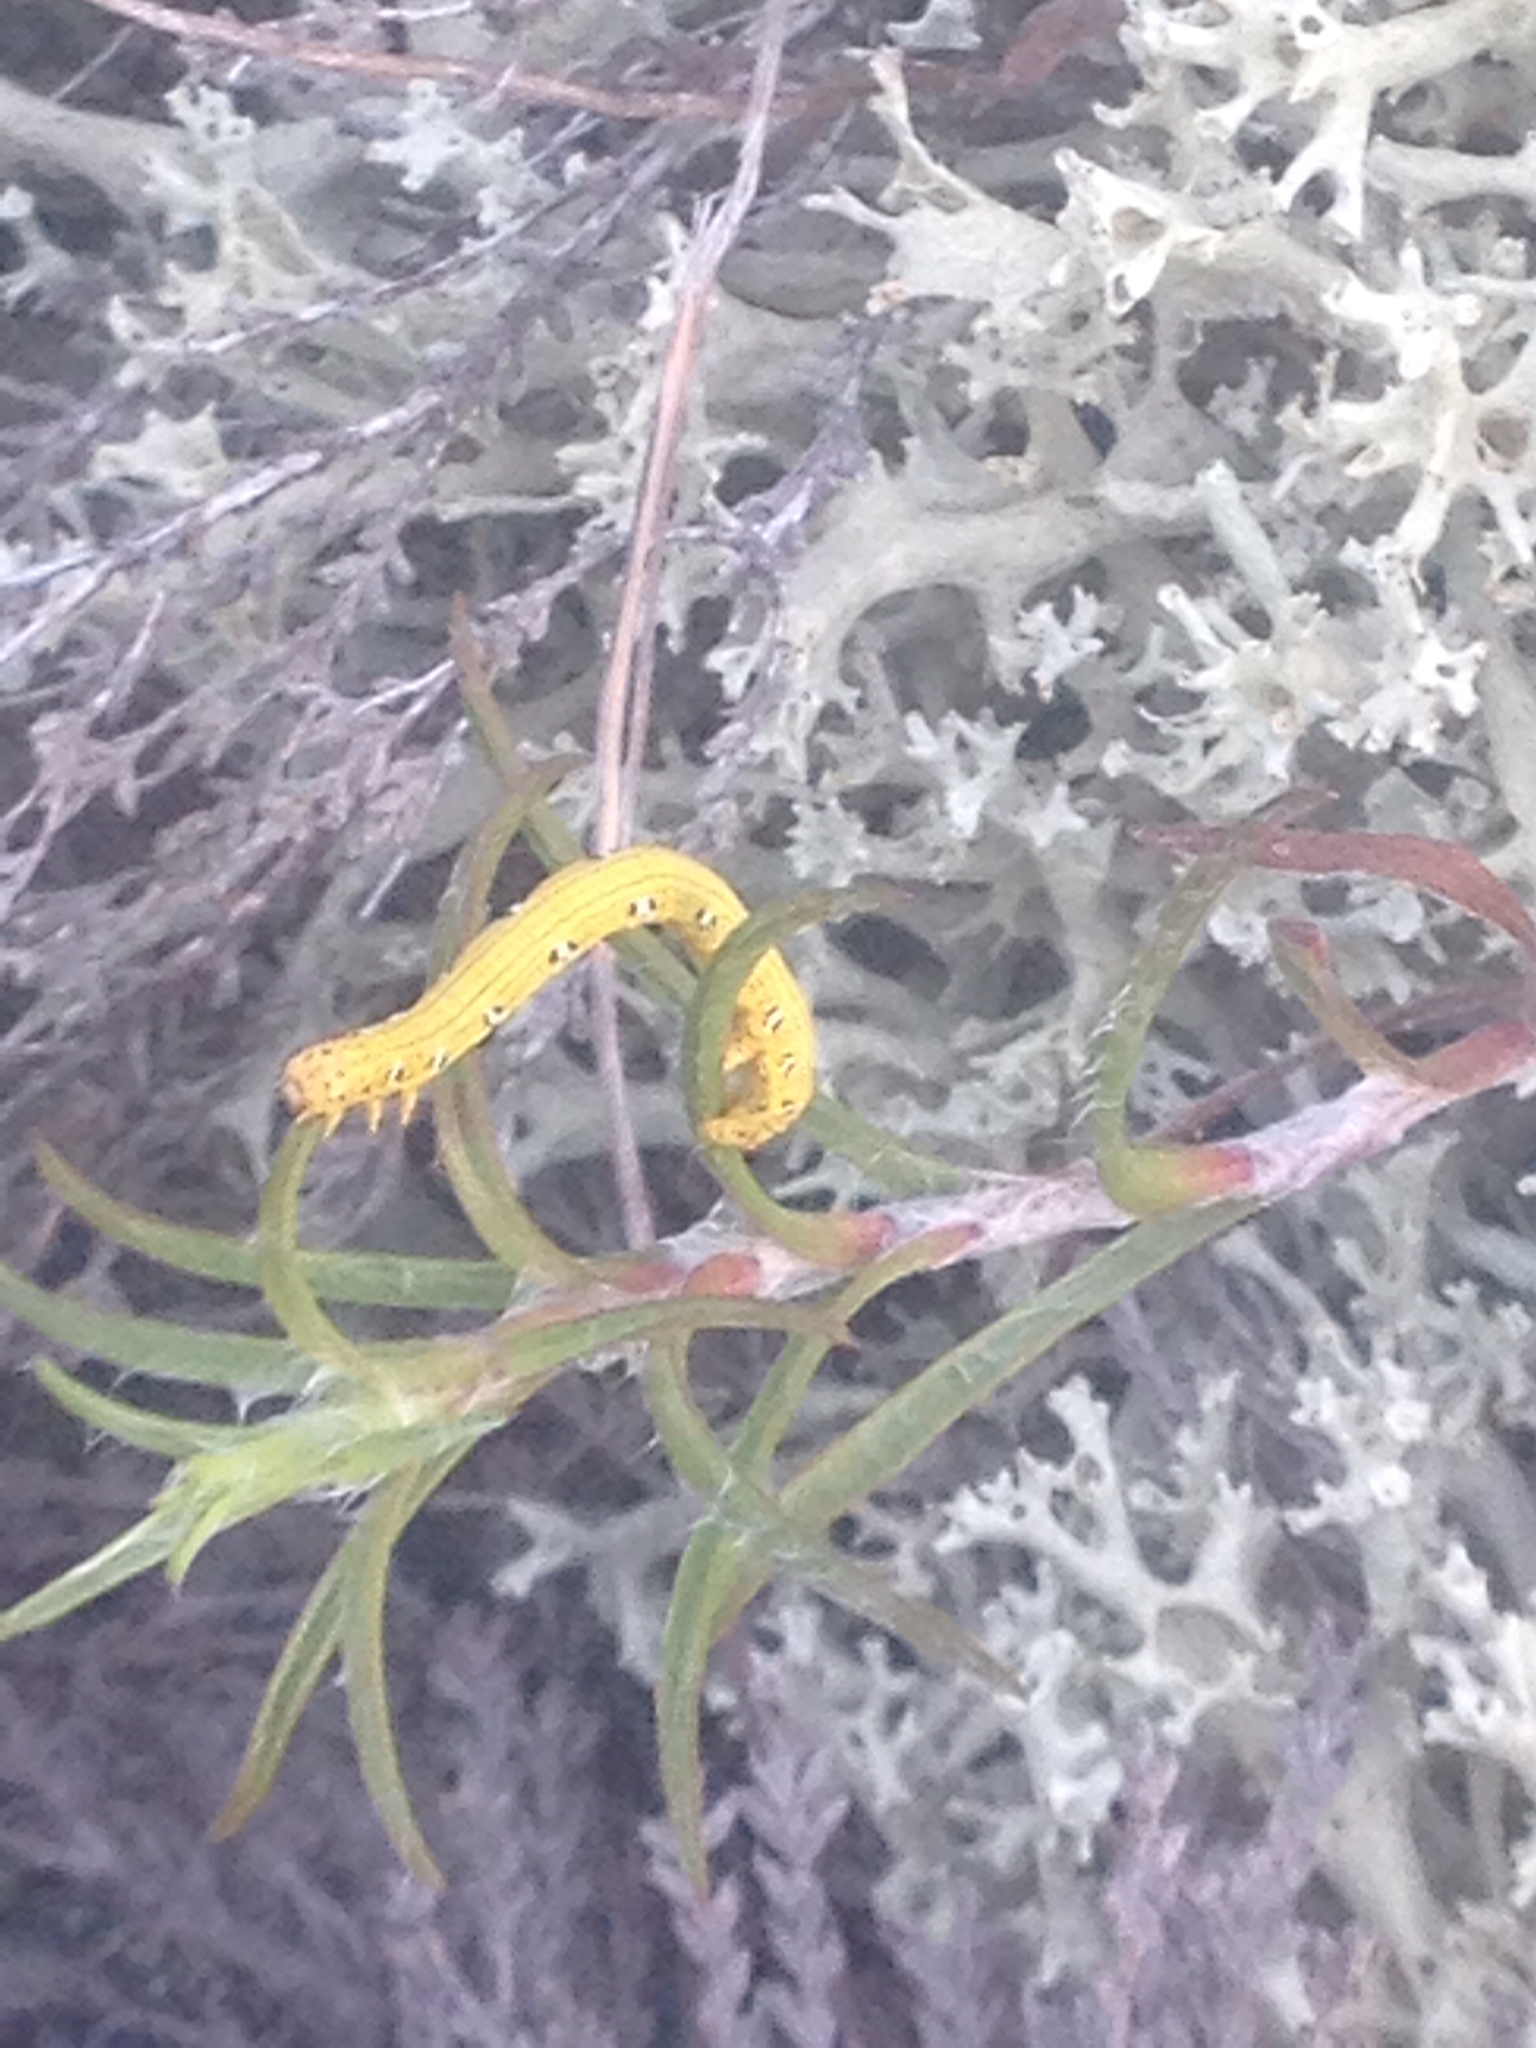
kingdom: Animalia
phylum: Arthropoda
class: Insecta
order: Lepidoptera
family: Geometridae
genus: Cingilia
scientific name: Cingilia catenaria
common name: Chain-dotted geometer
